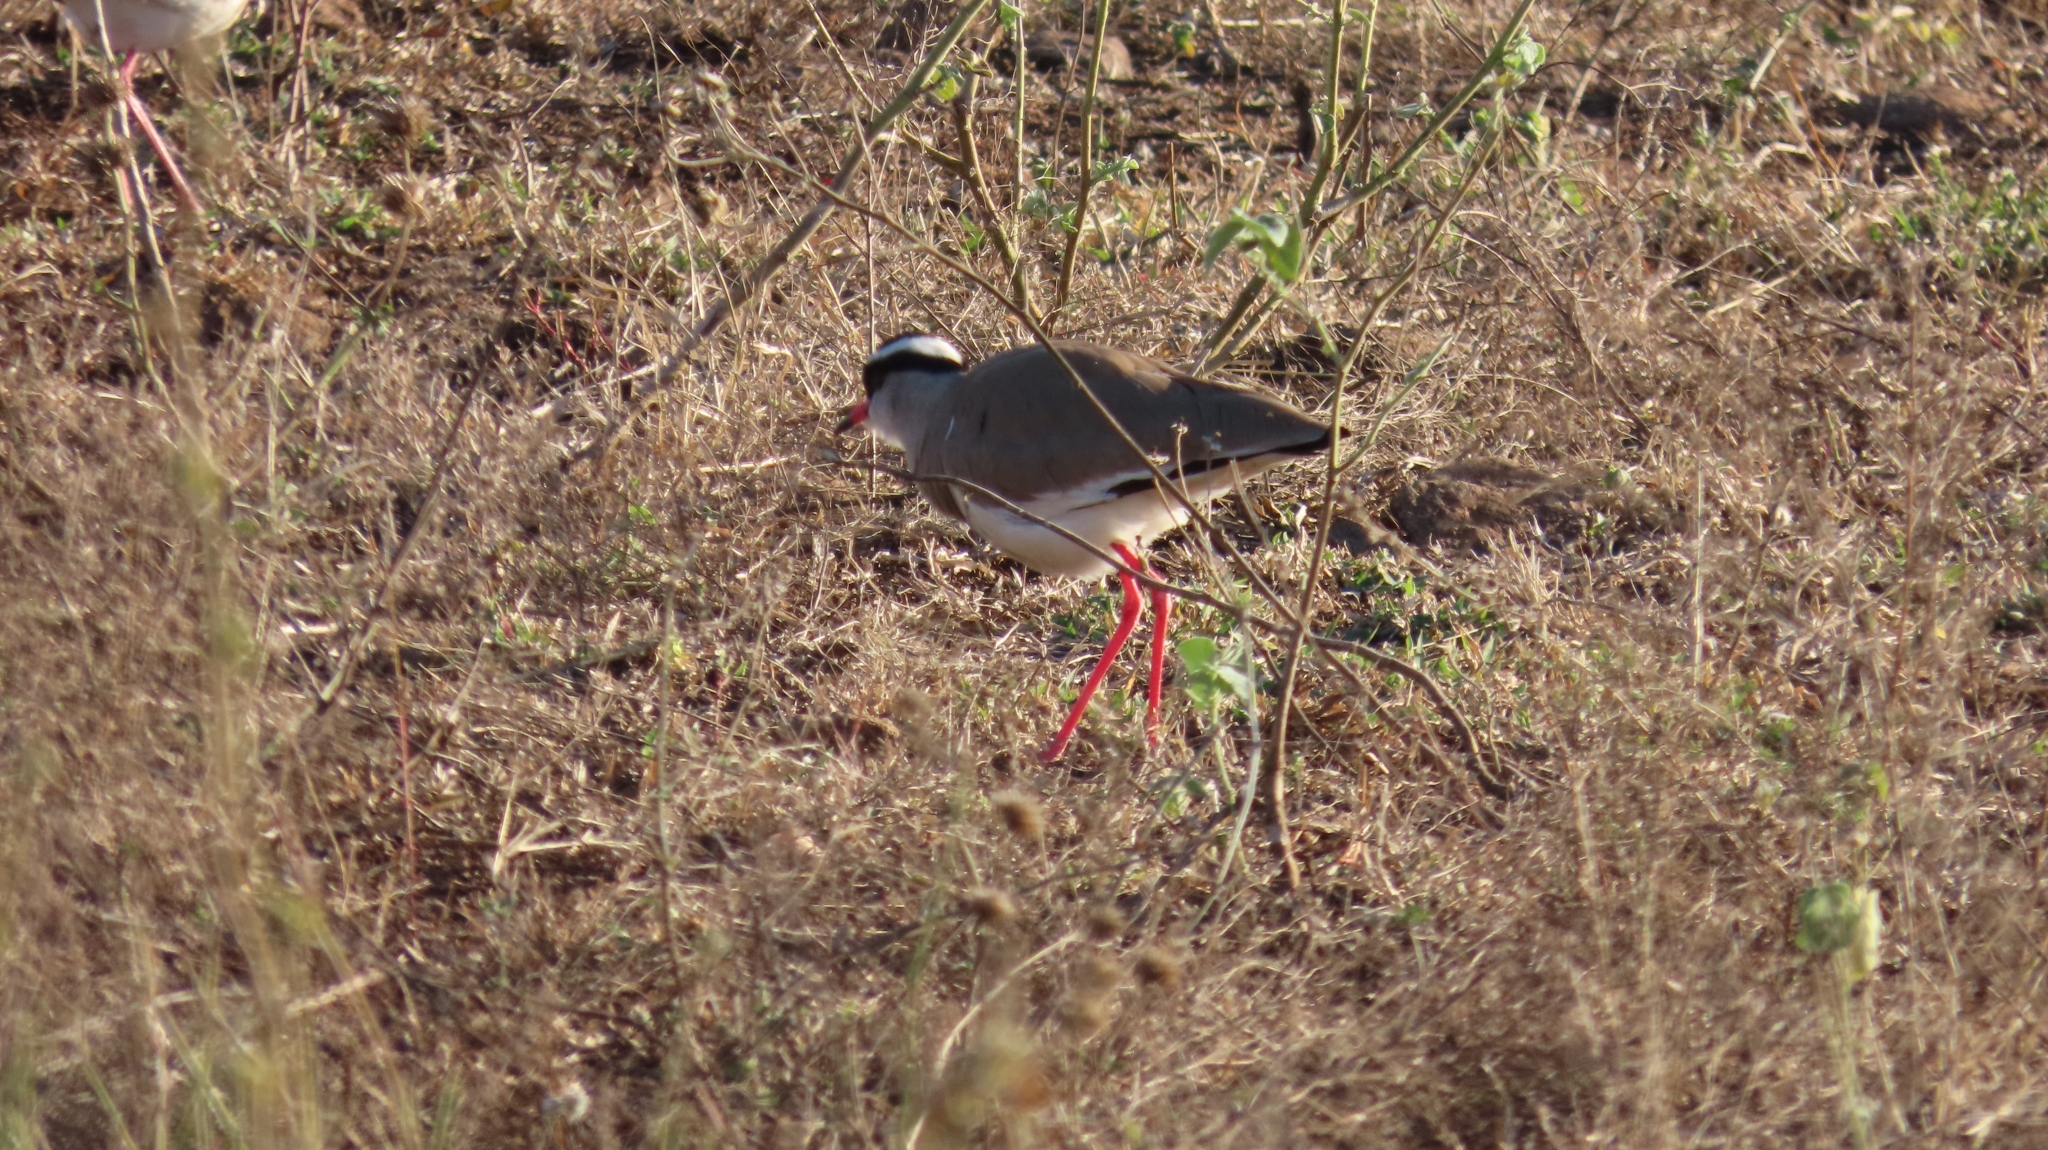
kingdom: Animalia
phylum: Chordata
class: Aves
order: Charadriiformes
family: Charadriidae
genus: Vanellus
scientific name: Vanellus coronatus
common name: Crowned lapwing
